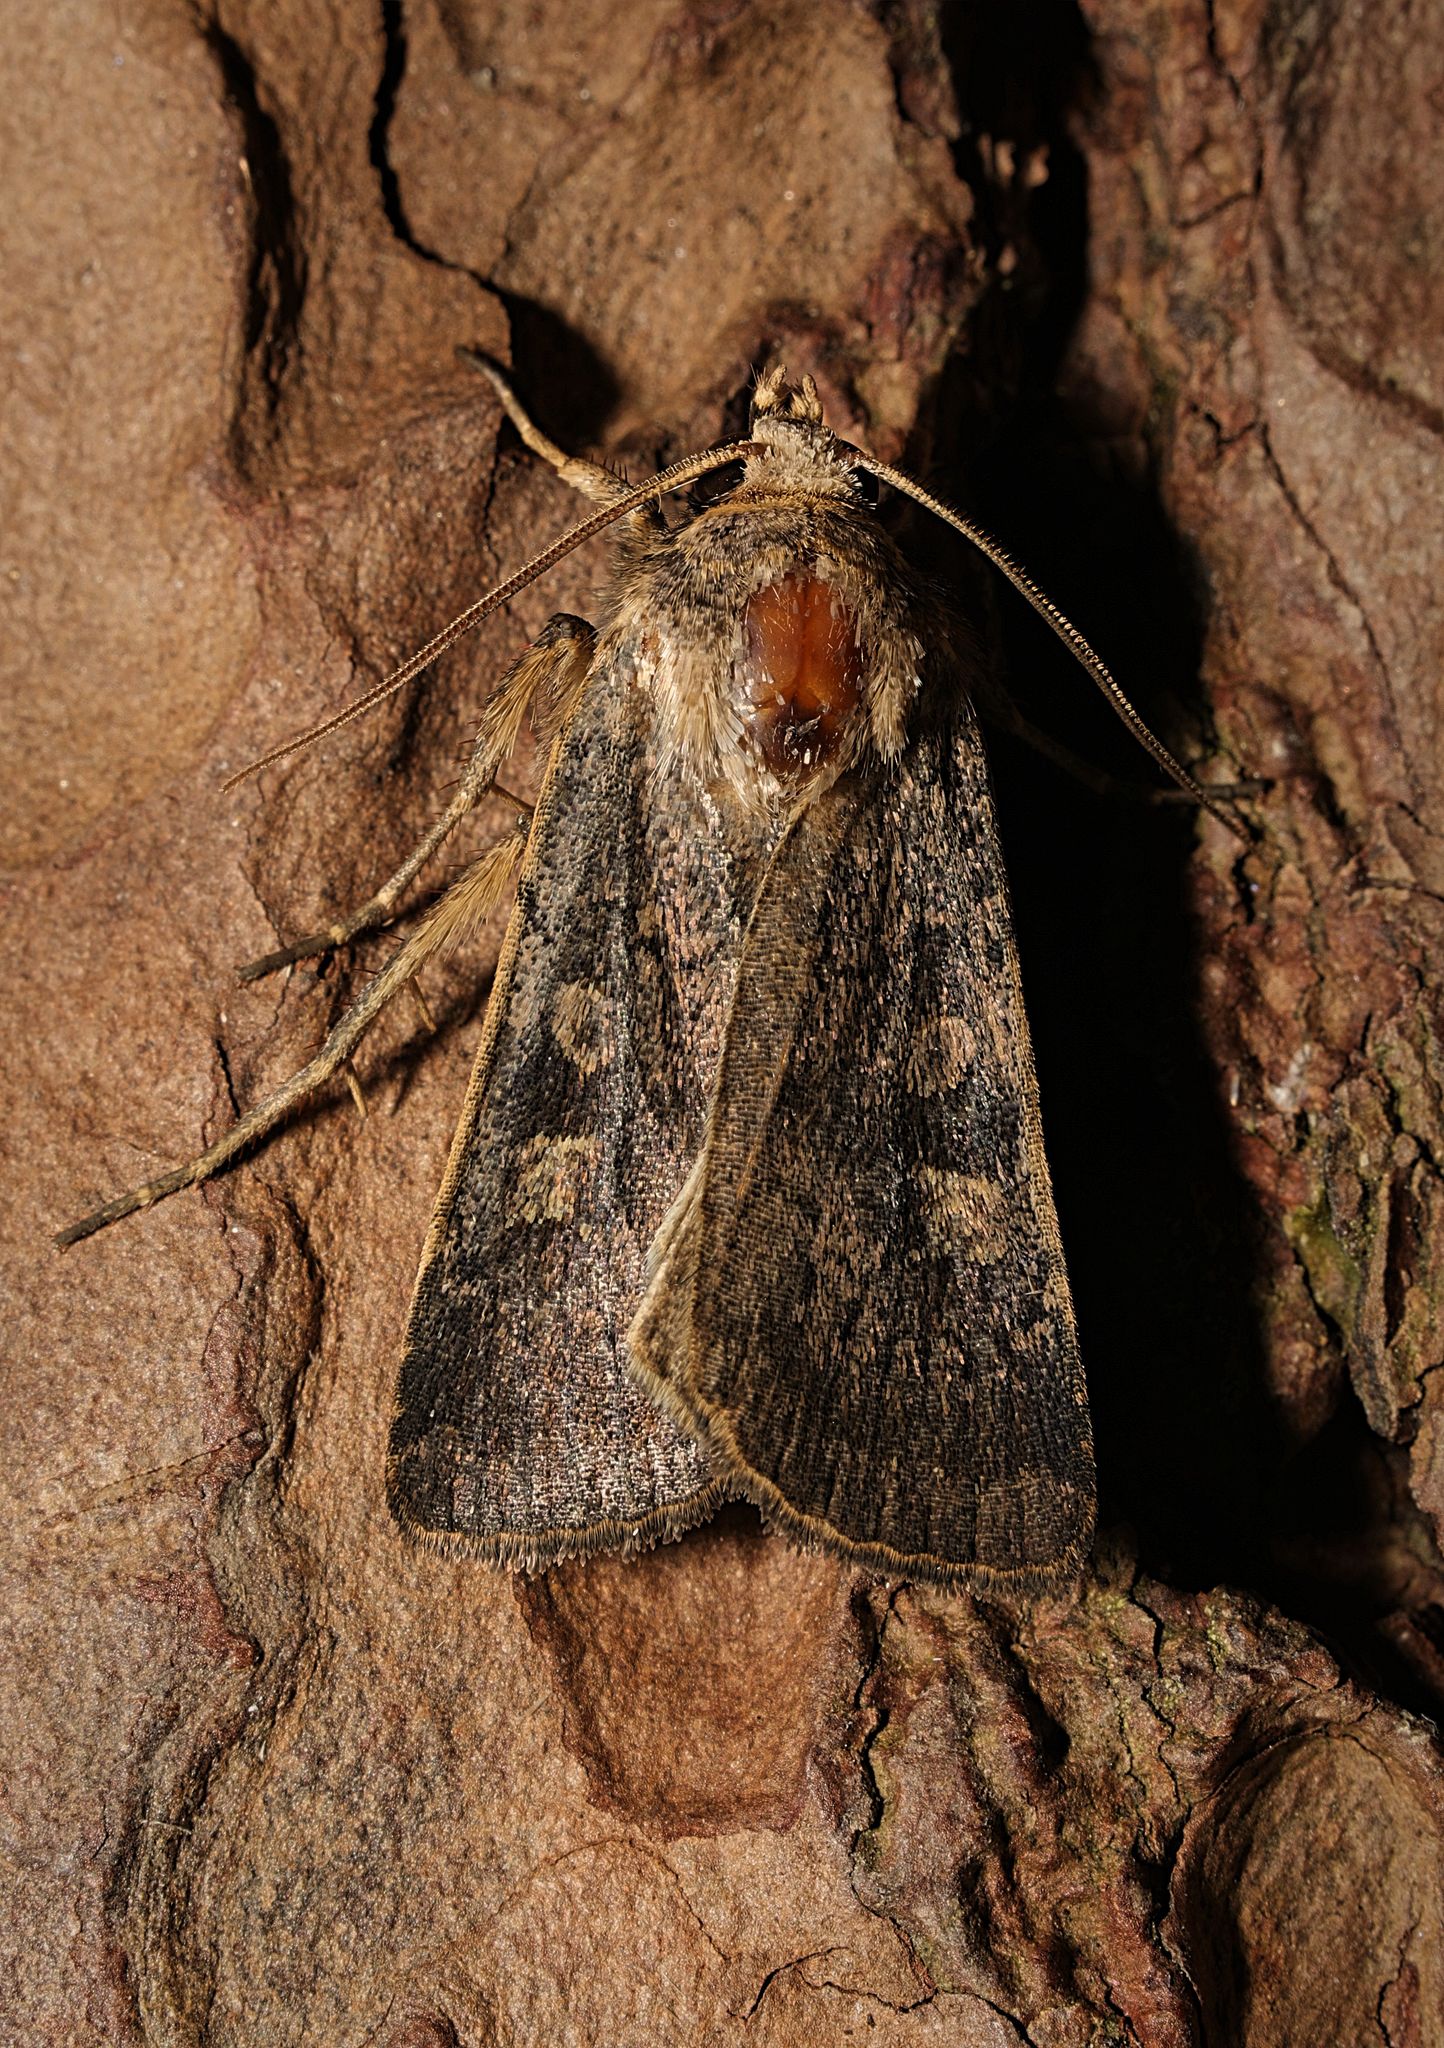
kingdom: Animalia
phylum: Arthropoda
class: Insecta
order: Lepidoptera
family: Noctuidae
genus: Xestia
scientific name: Xestia xanthographa
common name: Square-spot rustic
